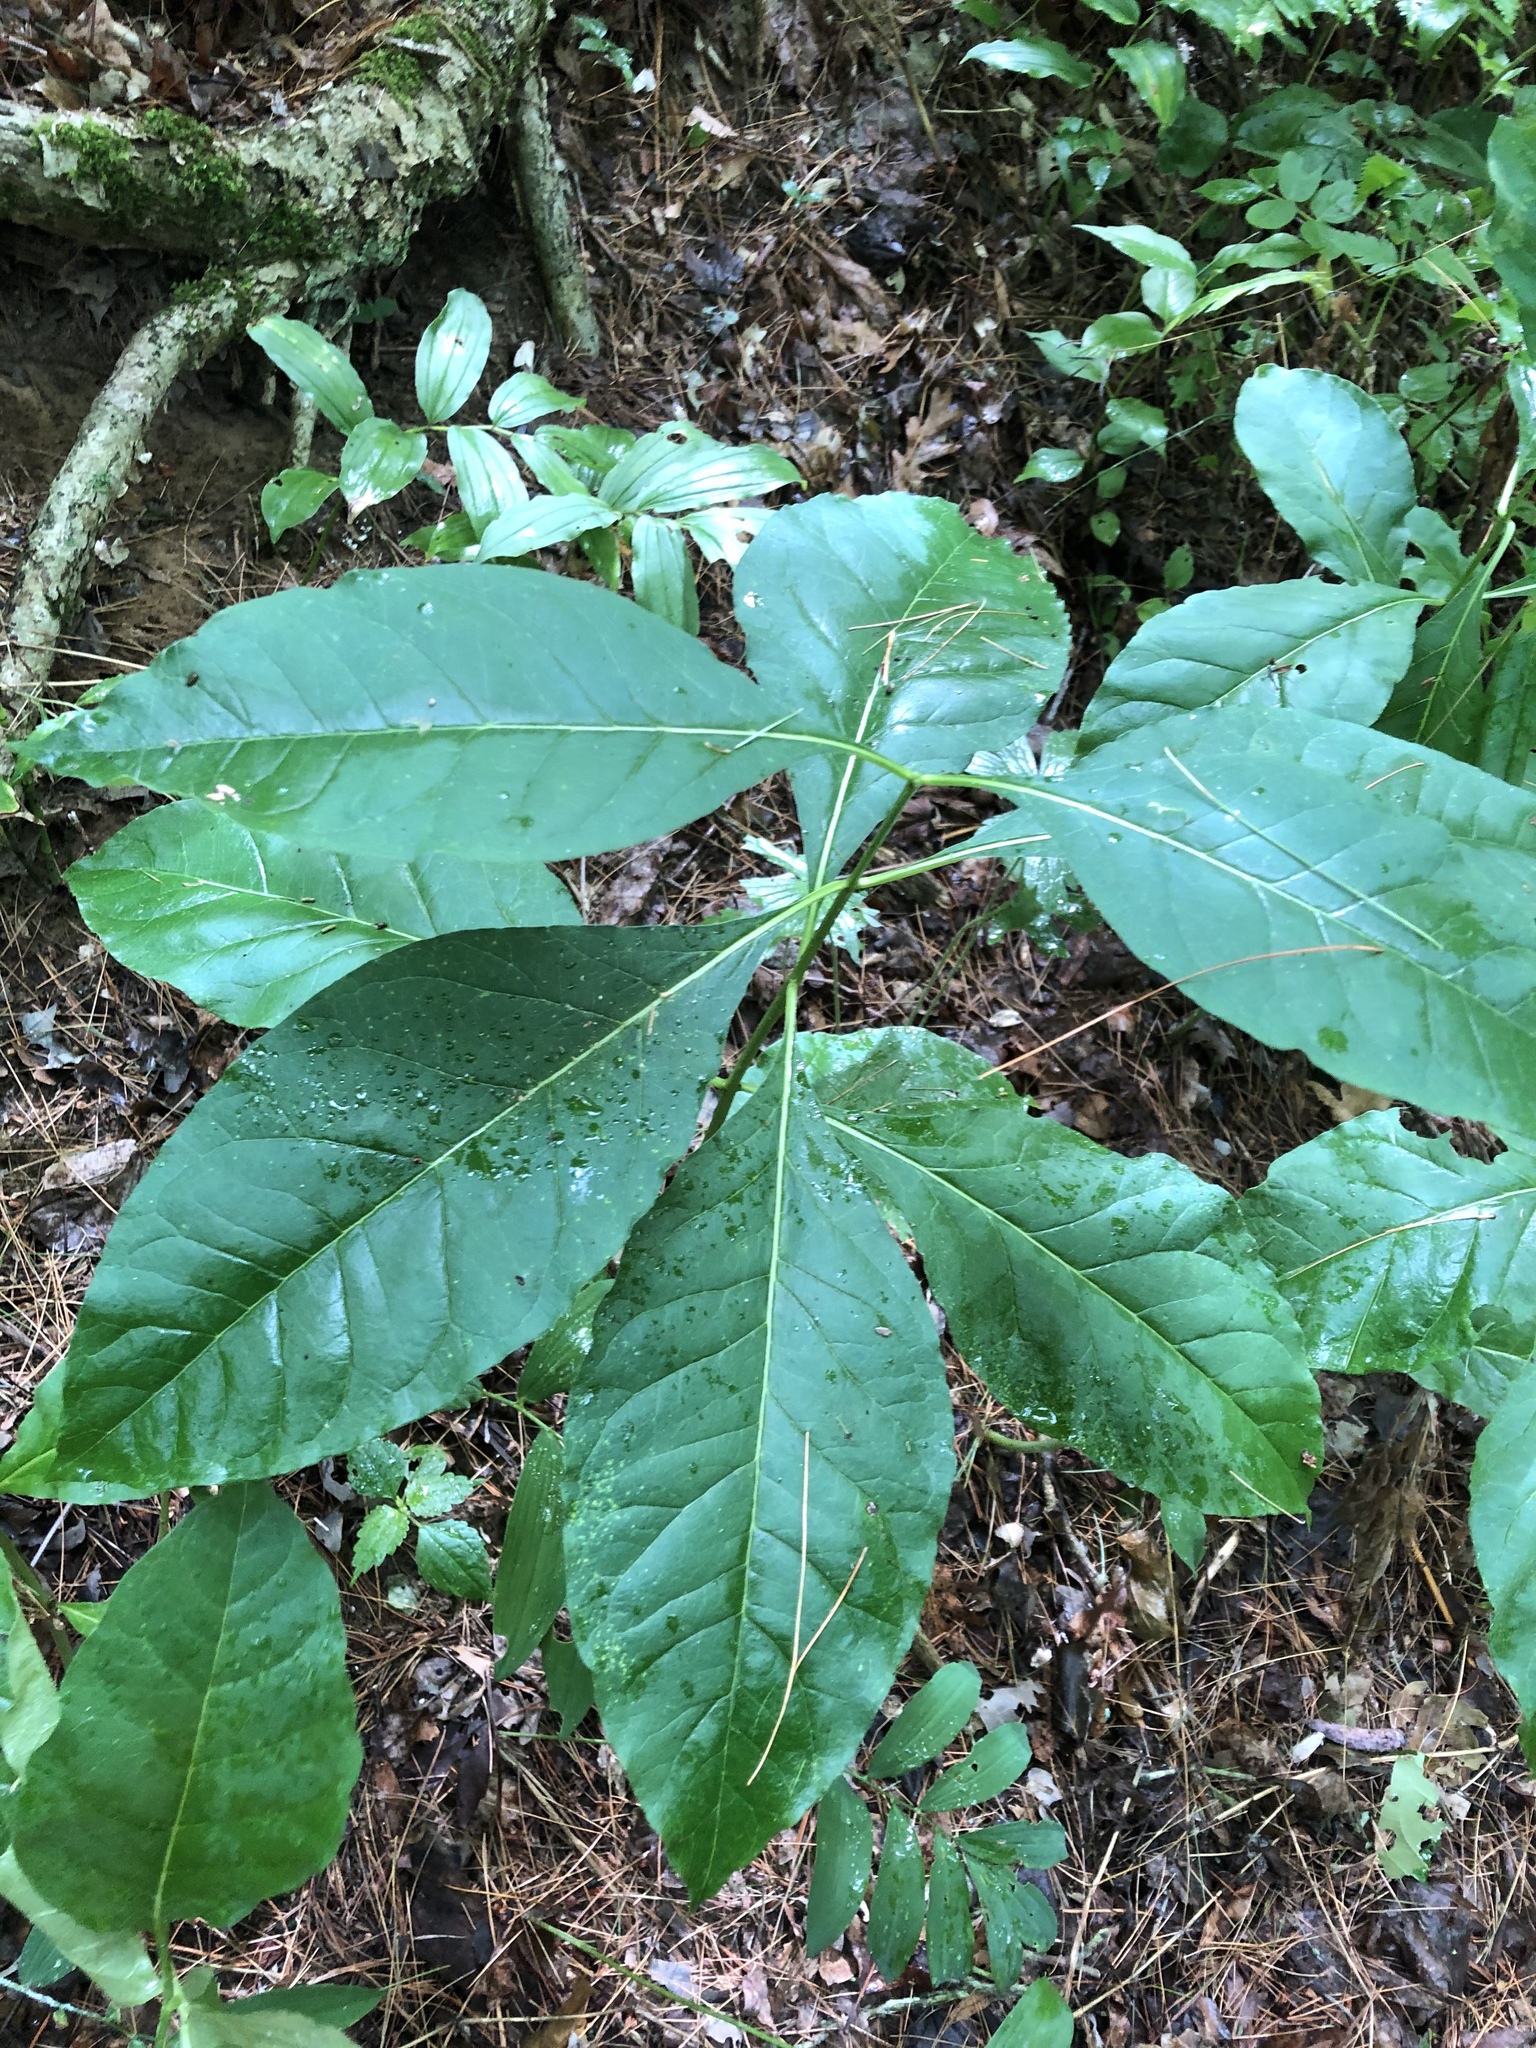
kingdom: Plantae
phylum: Tracheophyta
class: Magnoliopsida
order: Gentianales
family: Apocynaceae
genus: Asclepias
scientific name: Asclepias exaltata
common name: Poke milkweed
